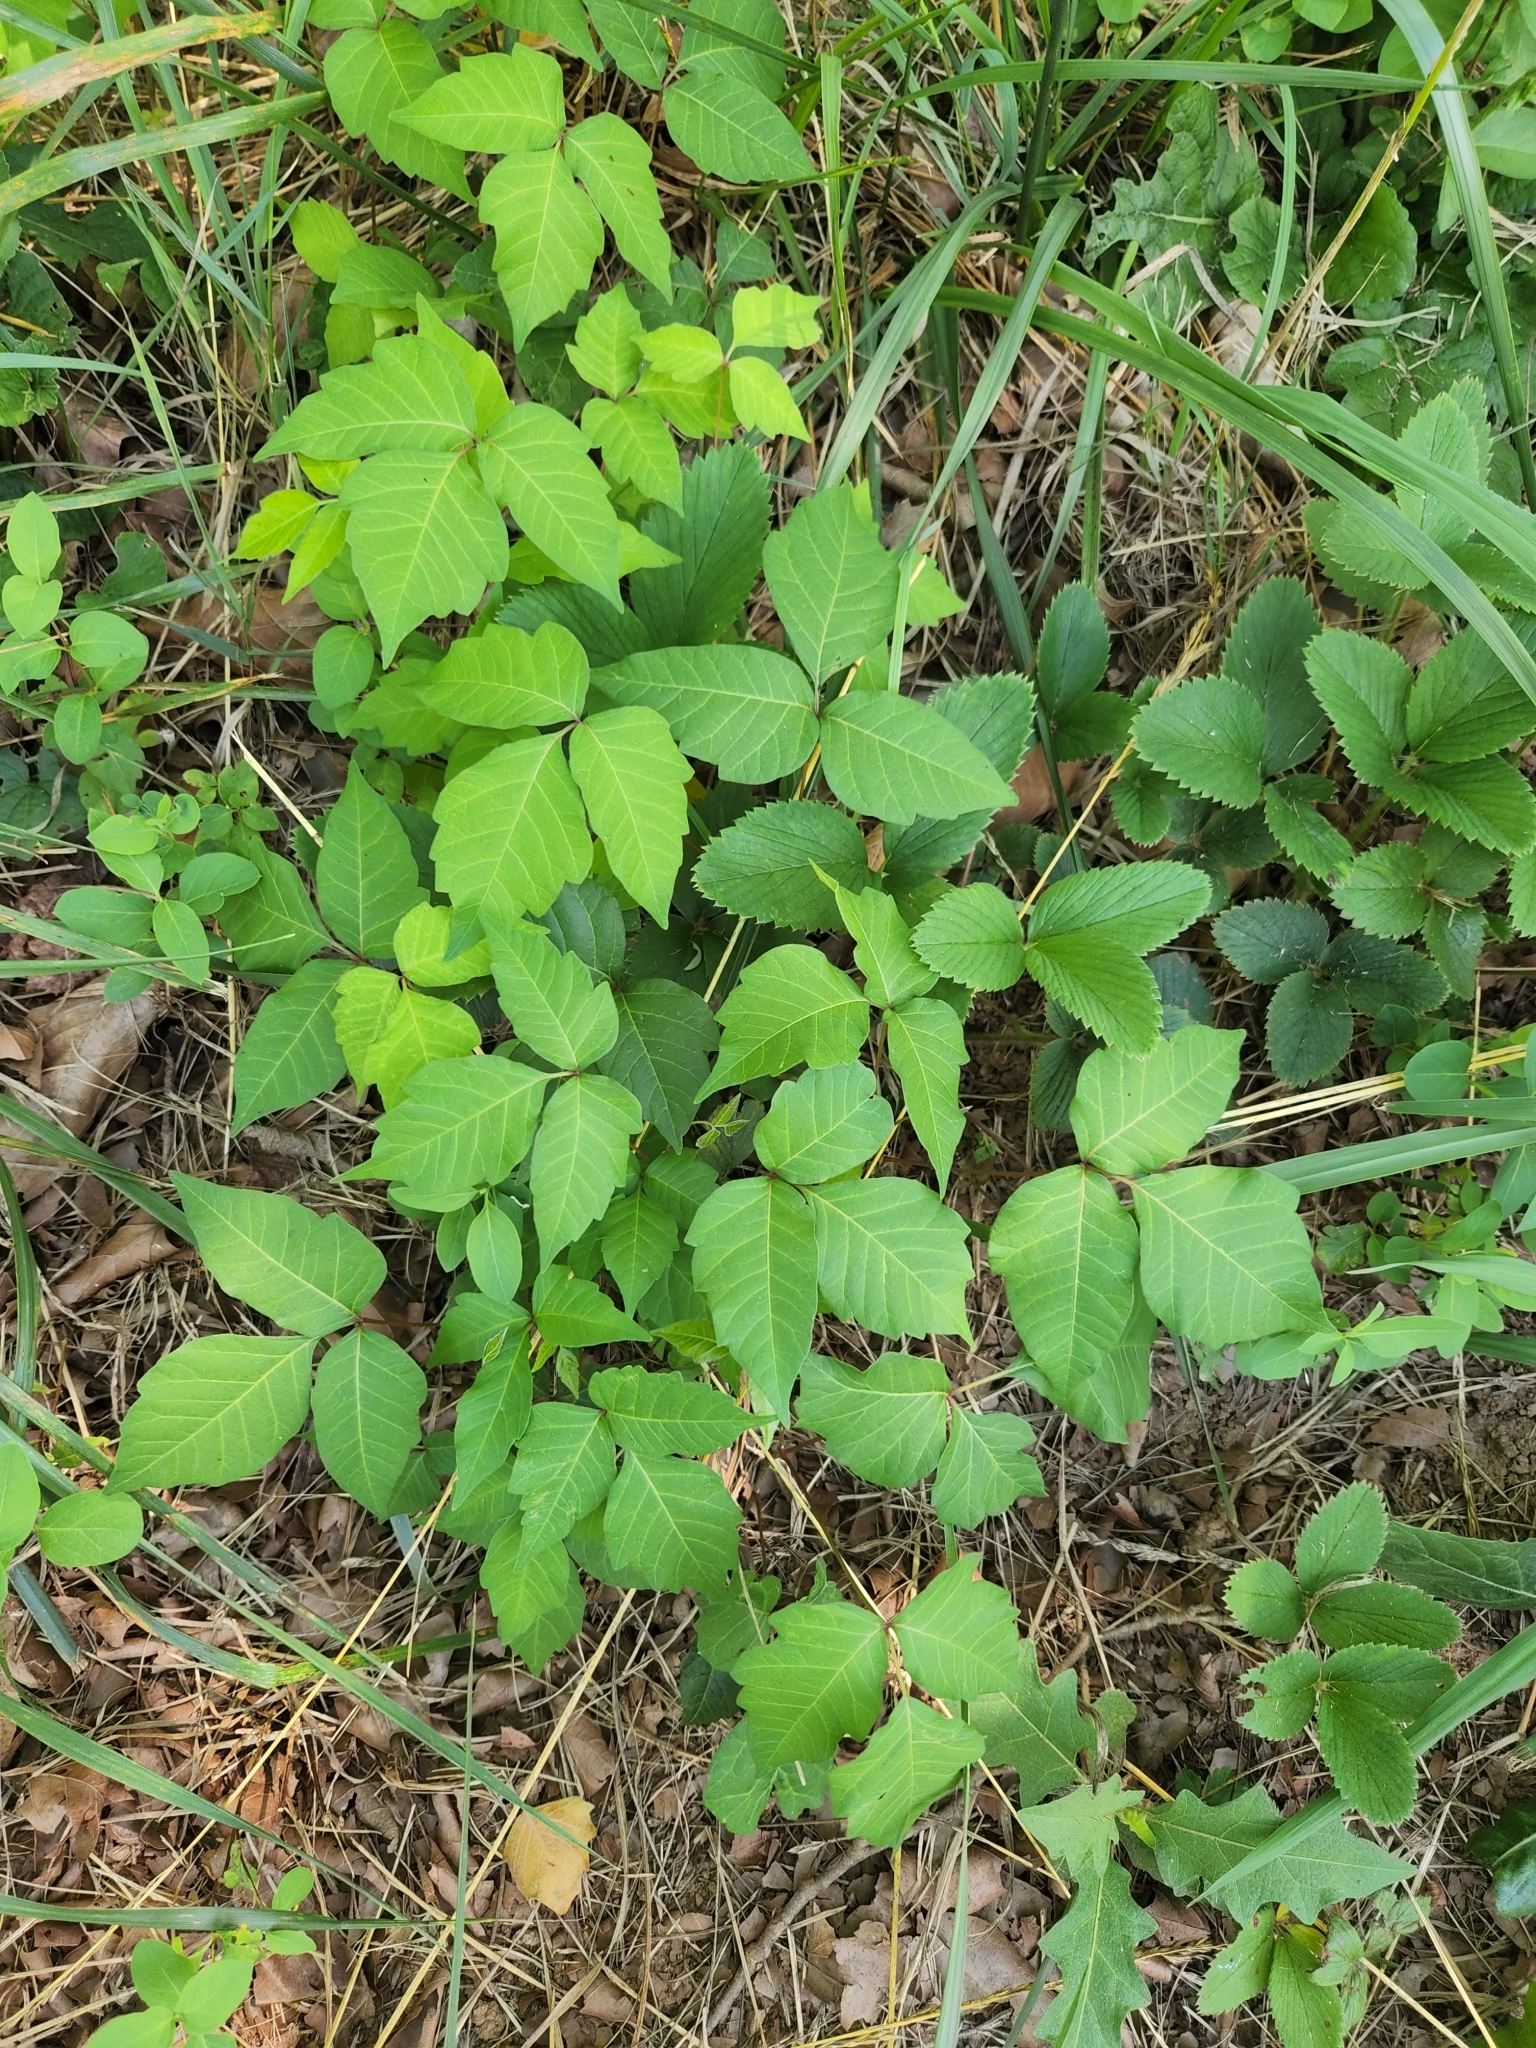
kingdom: Plantae
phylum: Tracheophyta
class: Magnoliopsida
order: Sapindales
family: Anacardiaceae
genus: Toxicodendron
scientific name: Toxicodendron radicans
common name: Poison ivy
